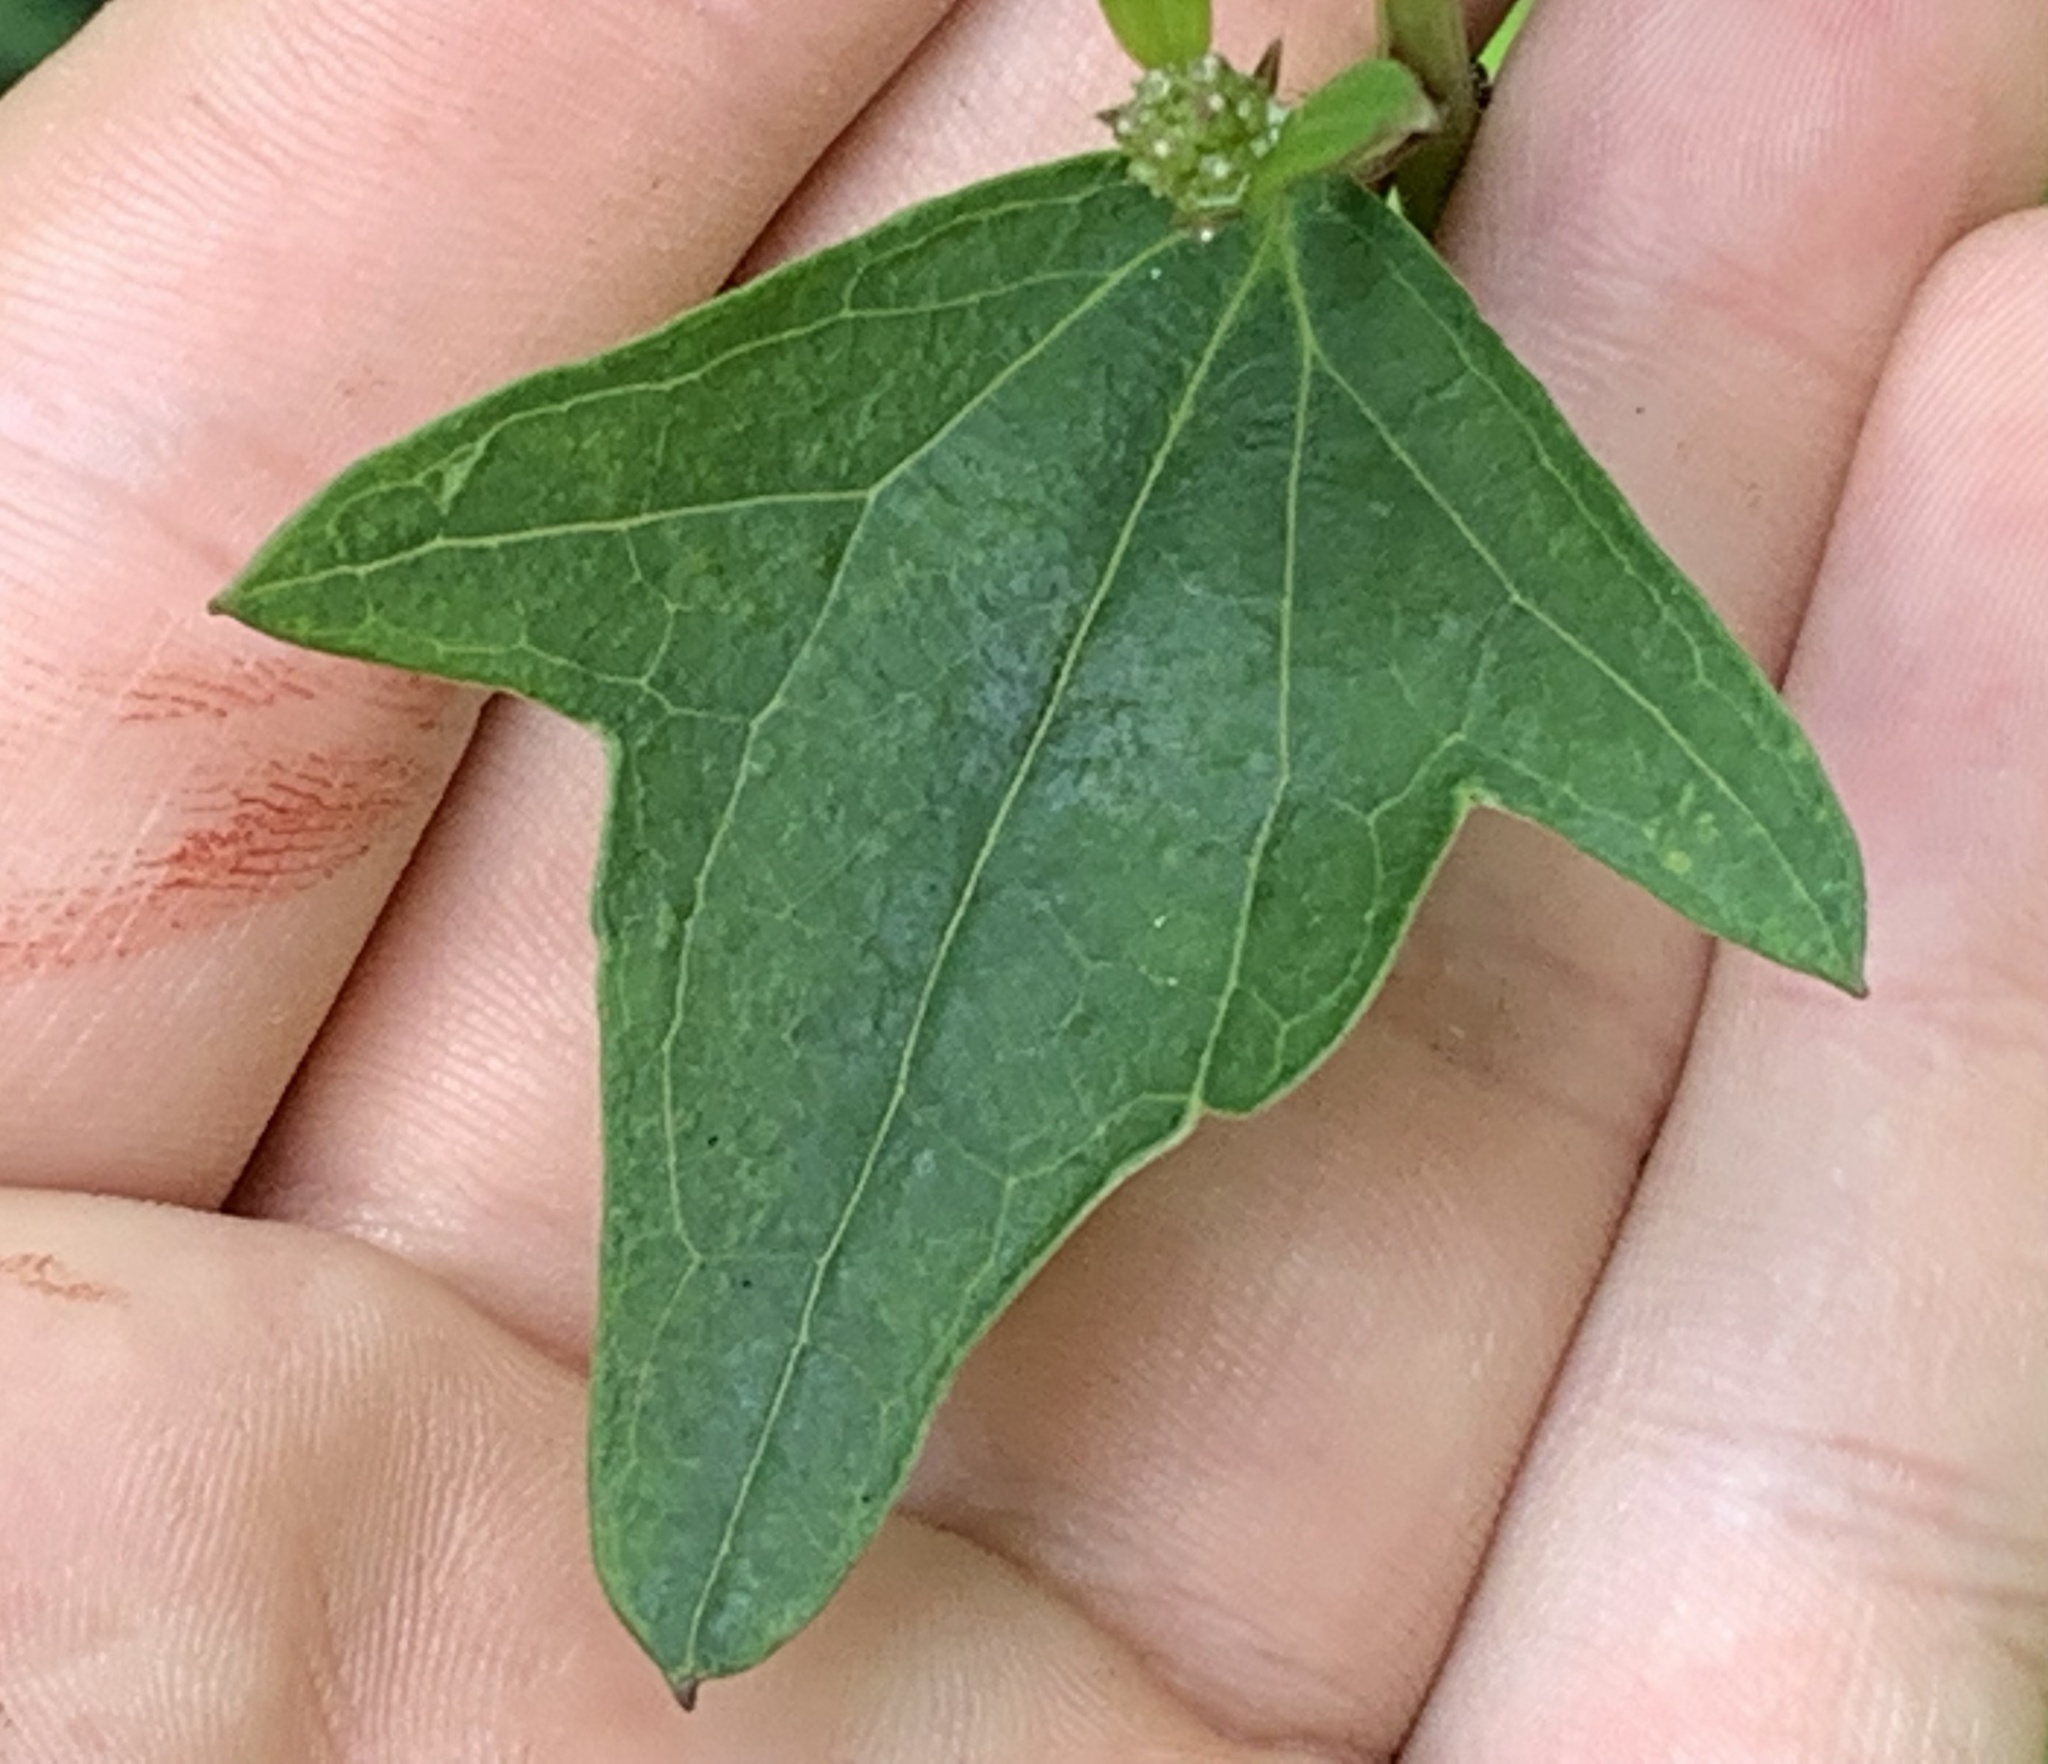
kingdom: Plantae
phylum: Tracheophyta
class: Magnoliopsida
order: Asterales
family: Asteraceae
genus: Arnoglossum
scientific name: Arnoglossum atriplicifolium
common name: Pale indian-plantain
